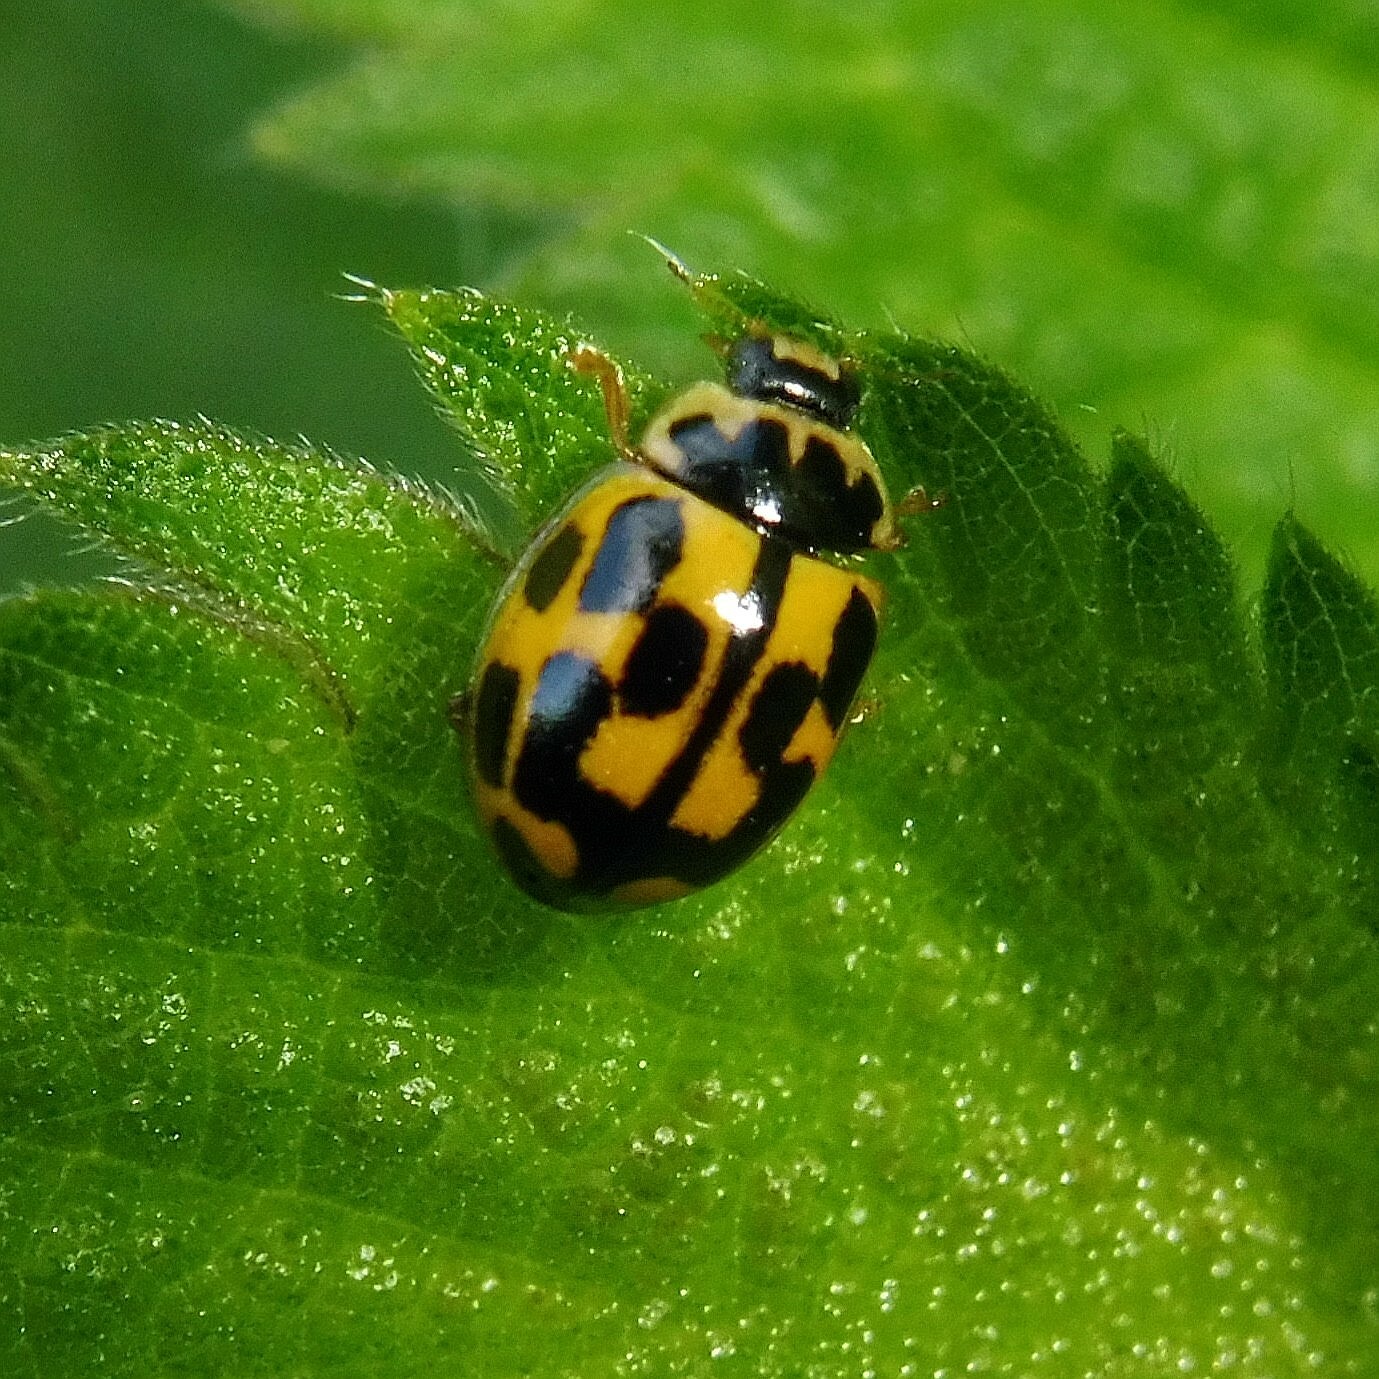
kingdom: Animalia
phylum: Arthropoda
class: Insecta
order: Coleoptera
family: Coccinellidae
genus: Propylaea
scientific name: Propylaea quatuordecimpunctata
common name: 14-spotted ladybird beetle
